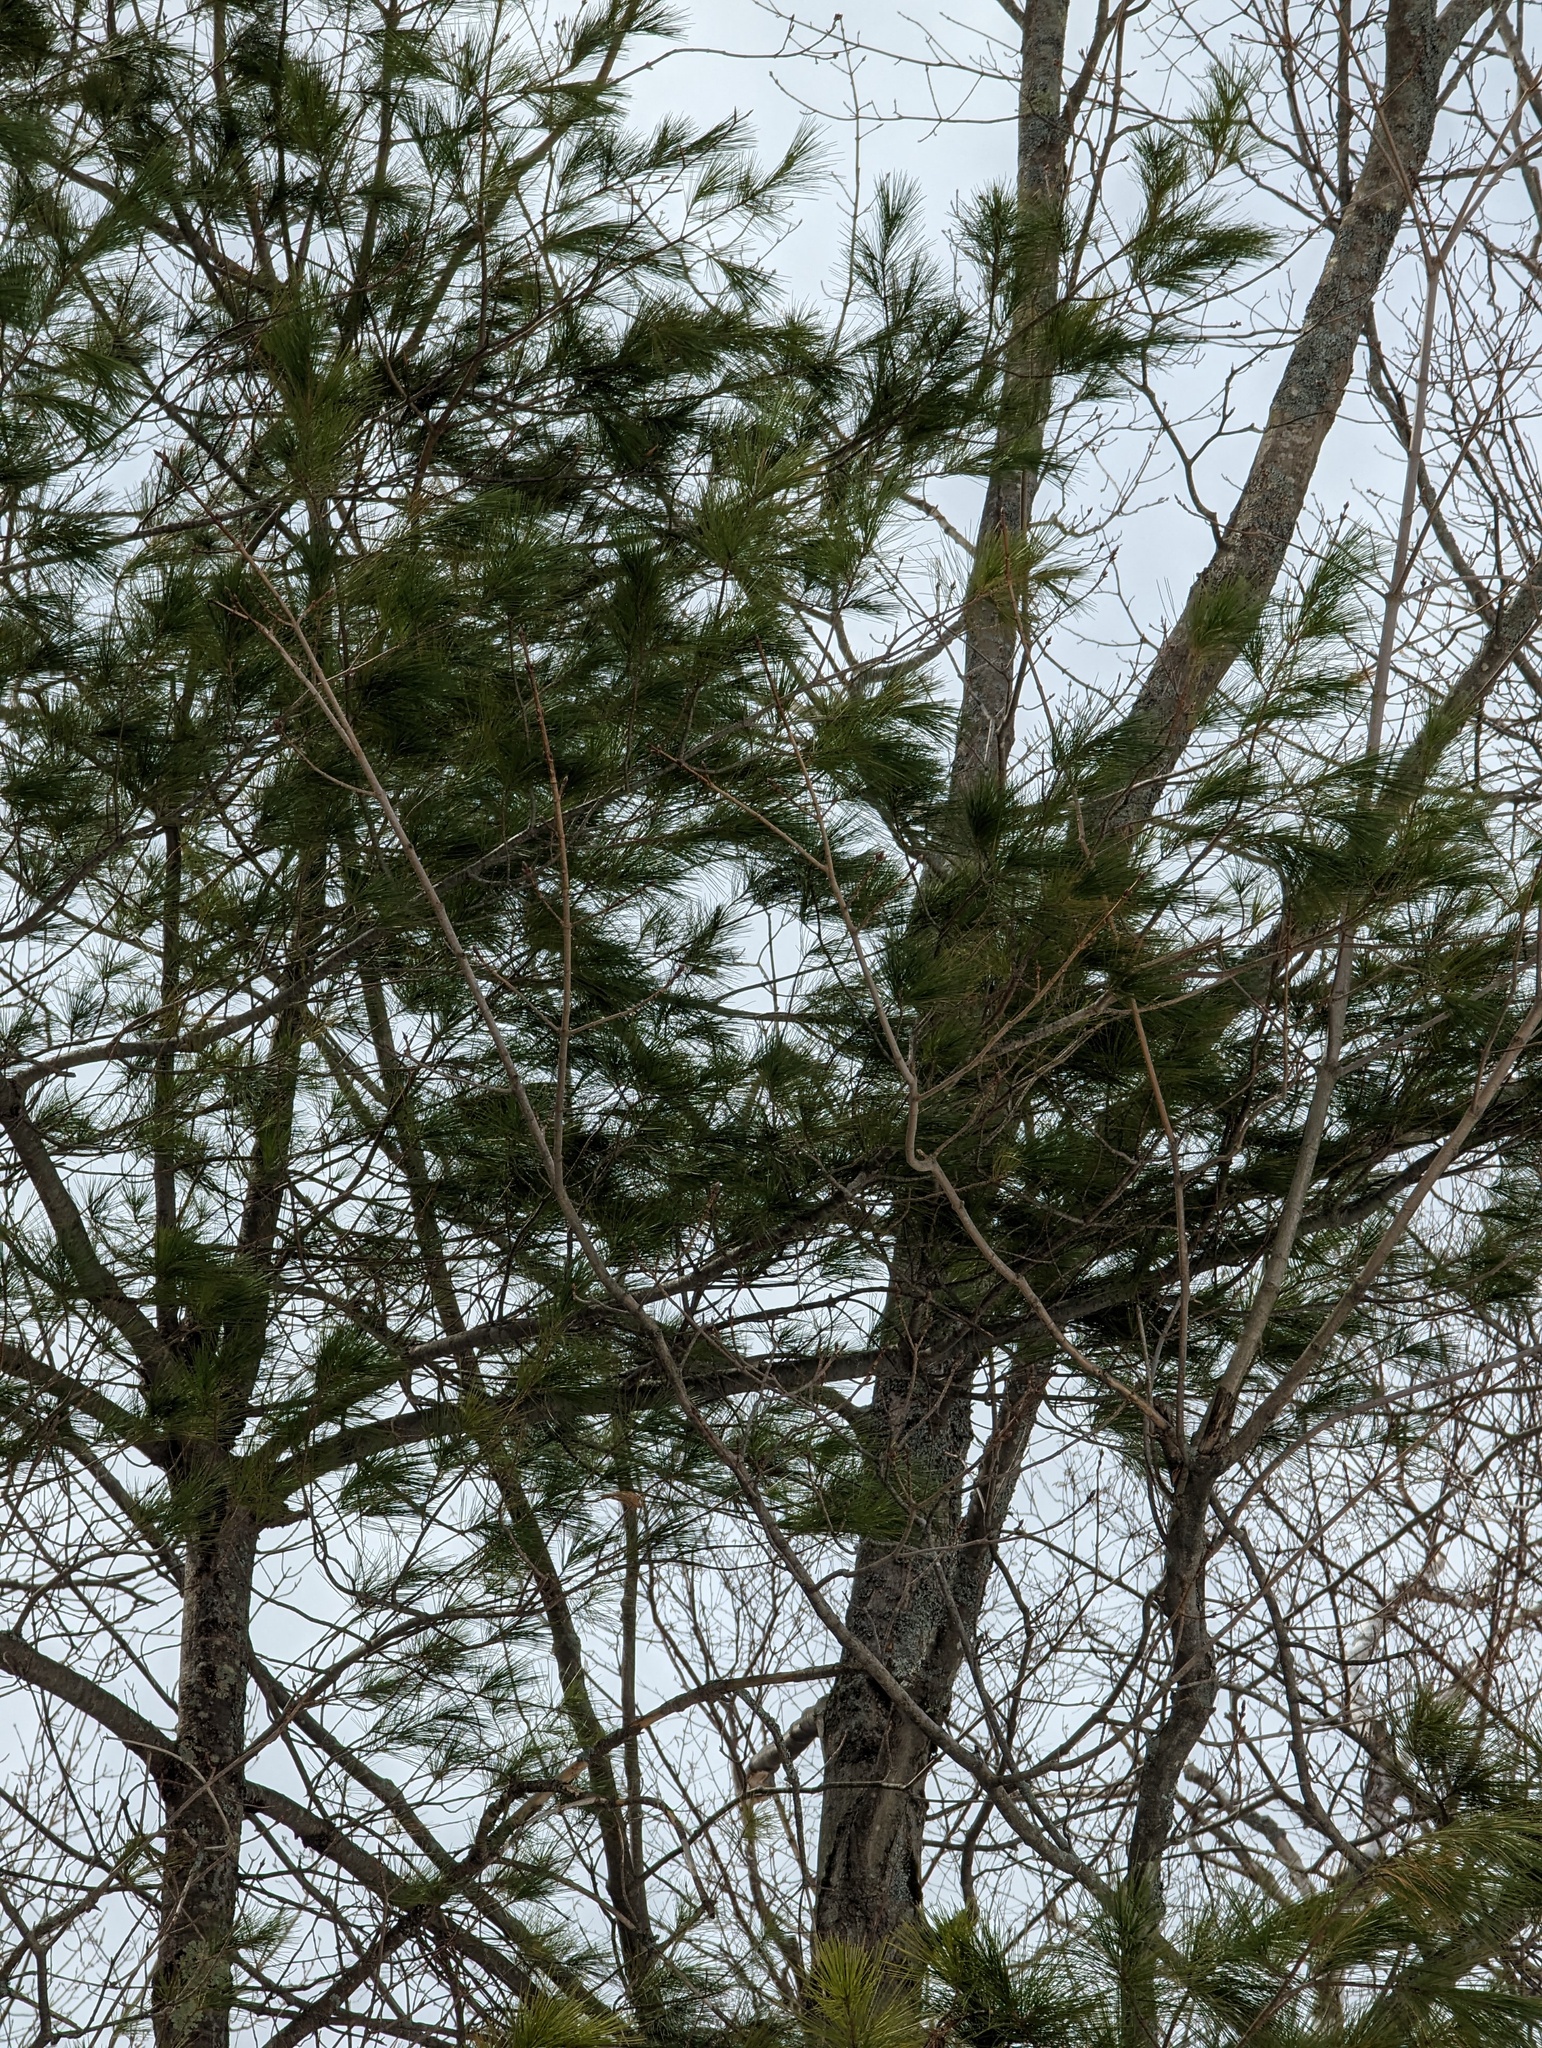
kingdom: Plantae
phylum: Tracheophyta
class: Pinopsida
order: Pinales
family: Pinaceae
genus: Pinus
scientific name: Pinus strobus
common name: Weymouth pine
